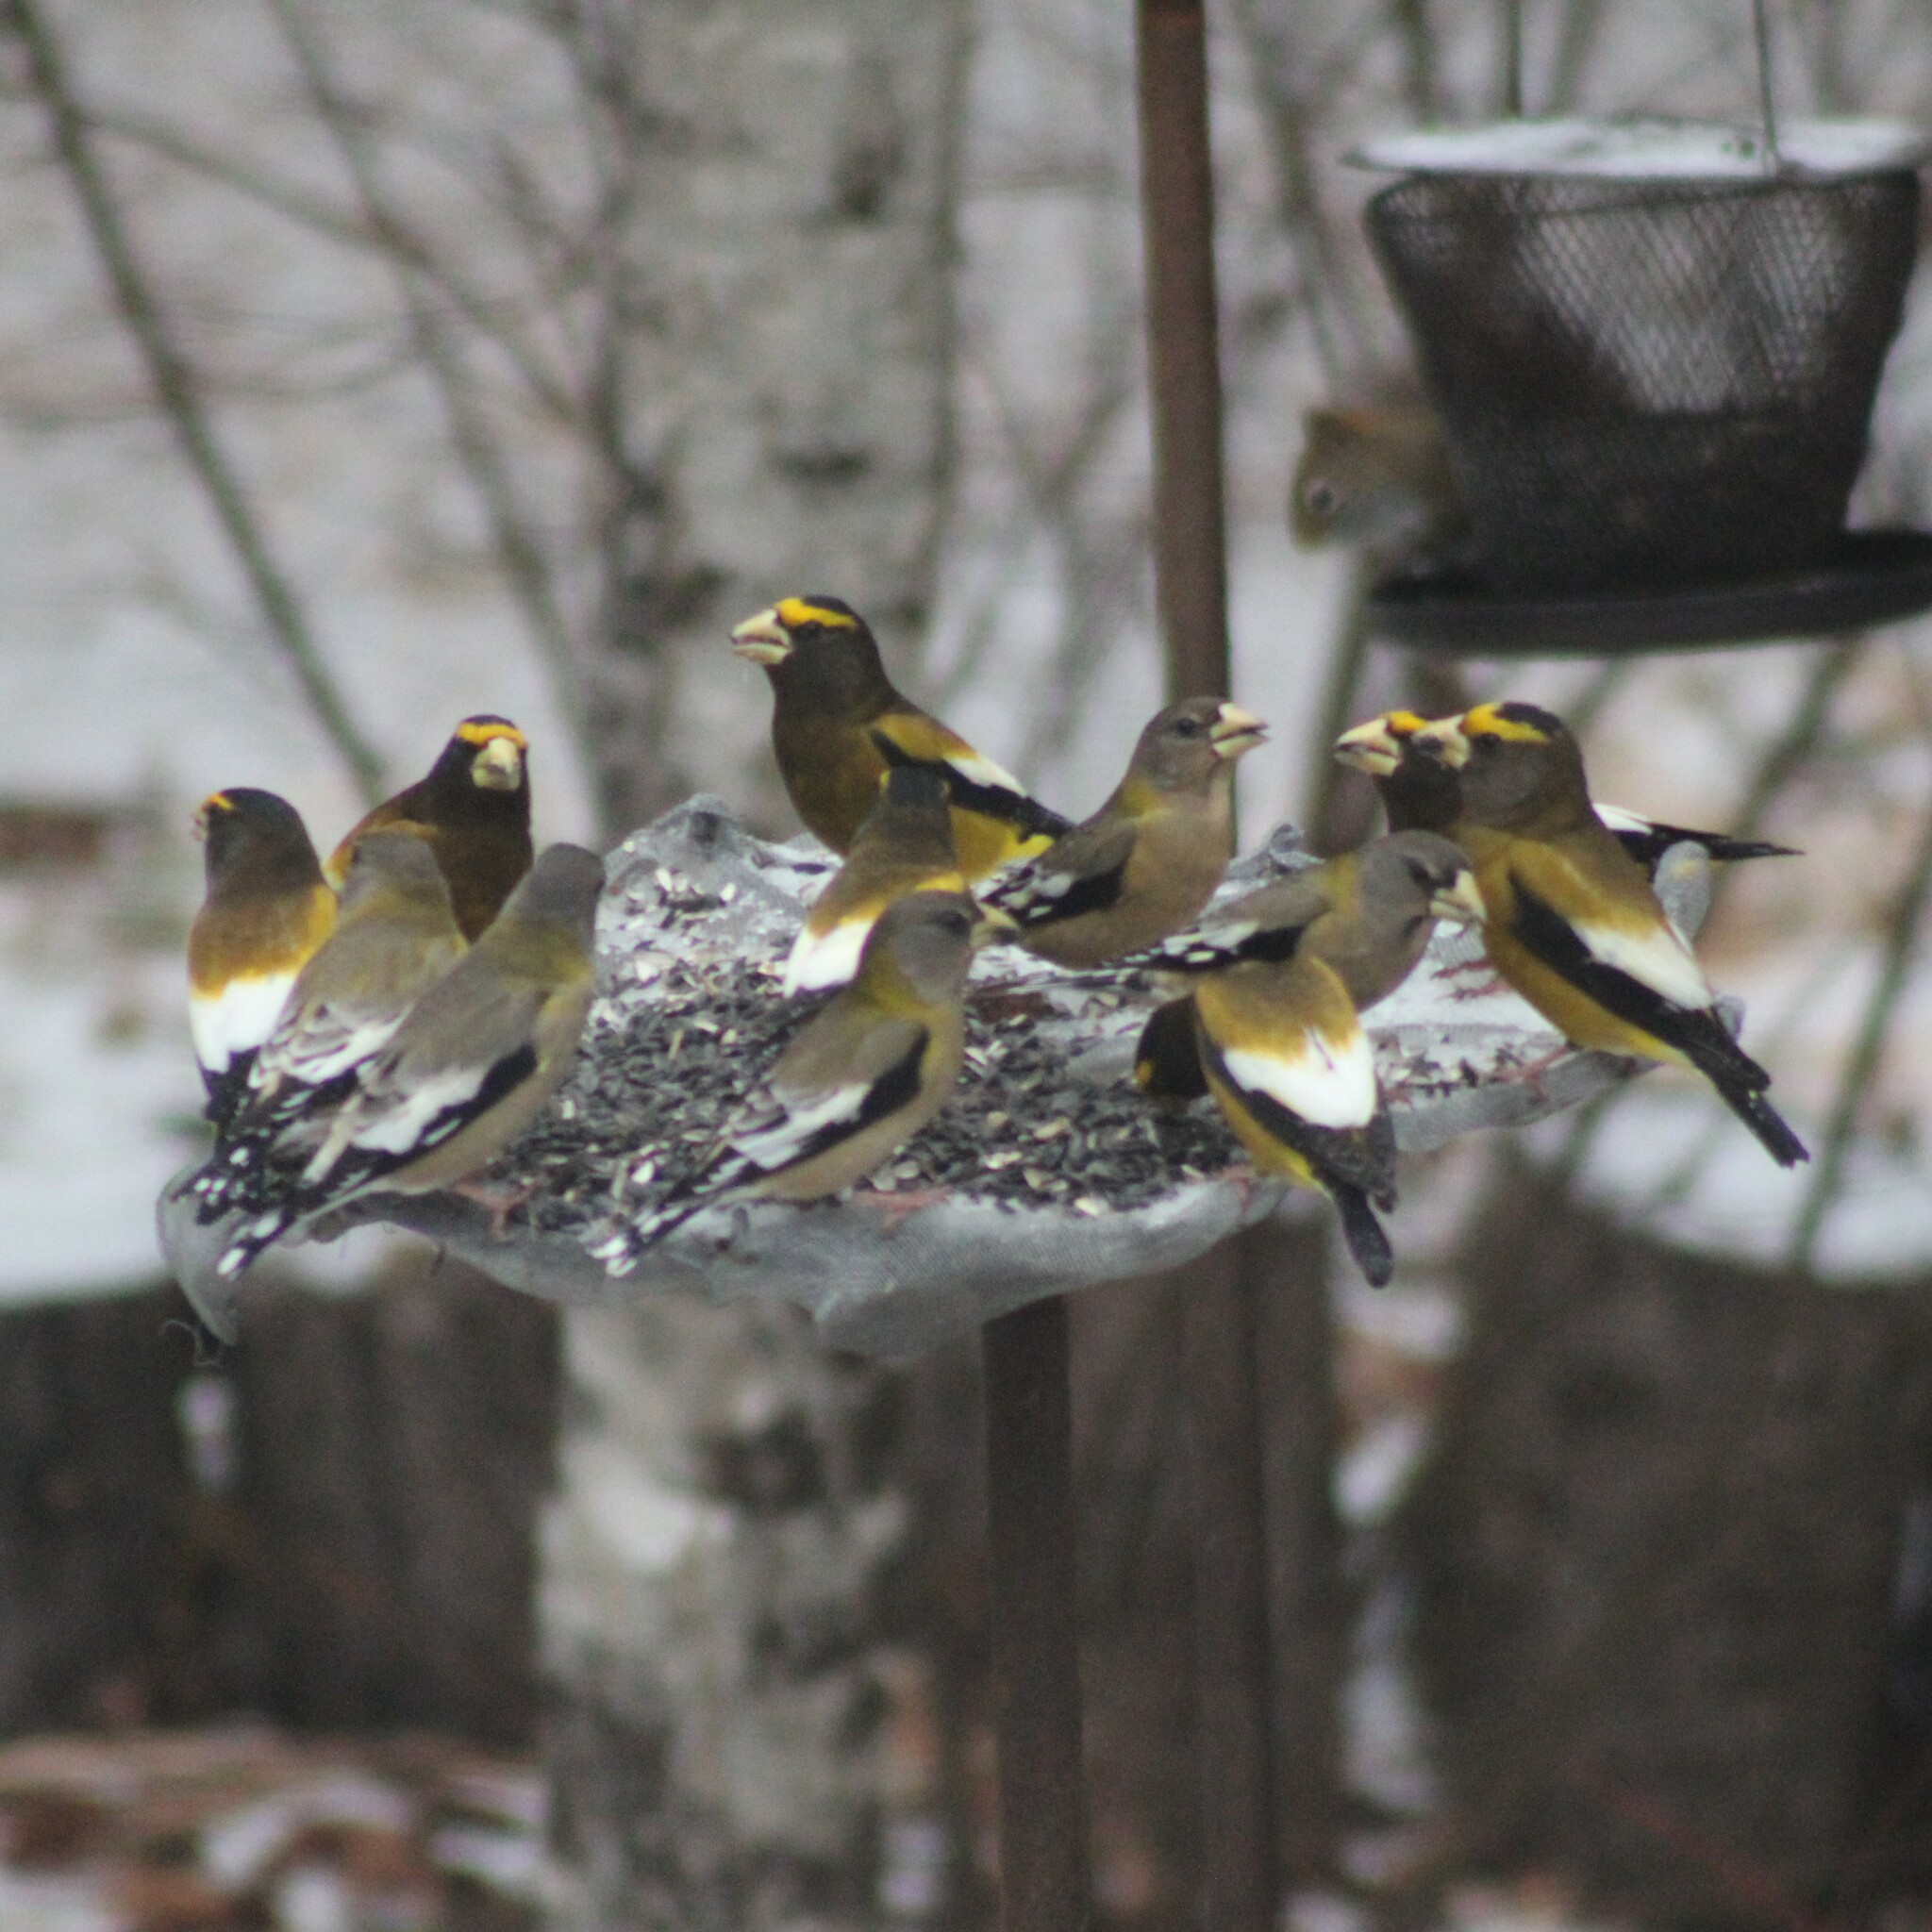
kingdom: Animalia
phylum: Chordata
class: Aves
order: Passeriformes
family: Fringillidae
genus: Hesperiphona
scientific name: Hesperiphona vespertina
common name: Evening grosbeak
